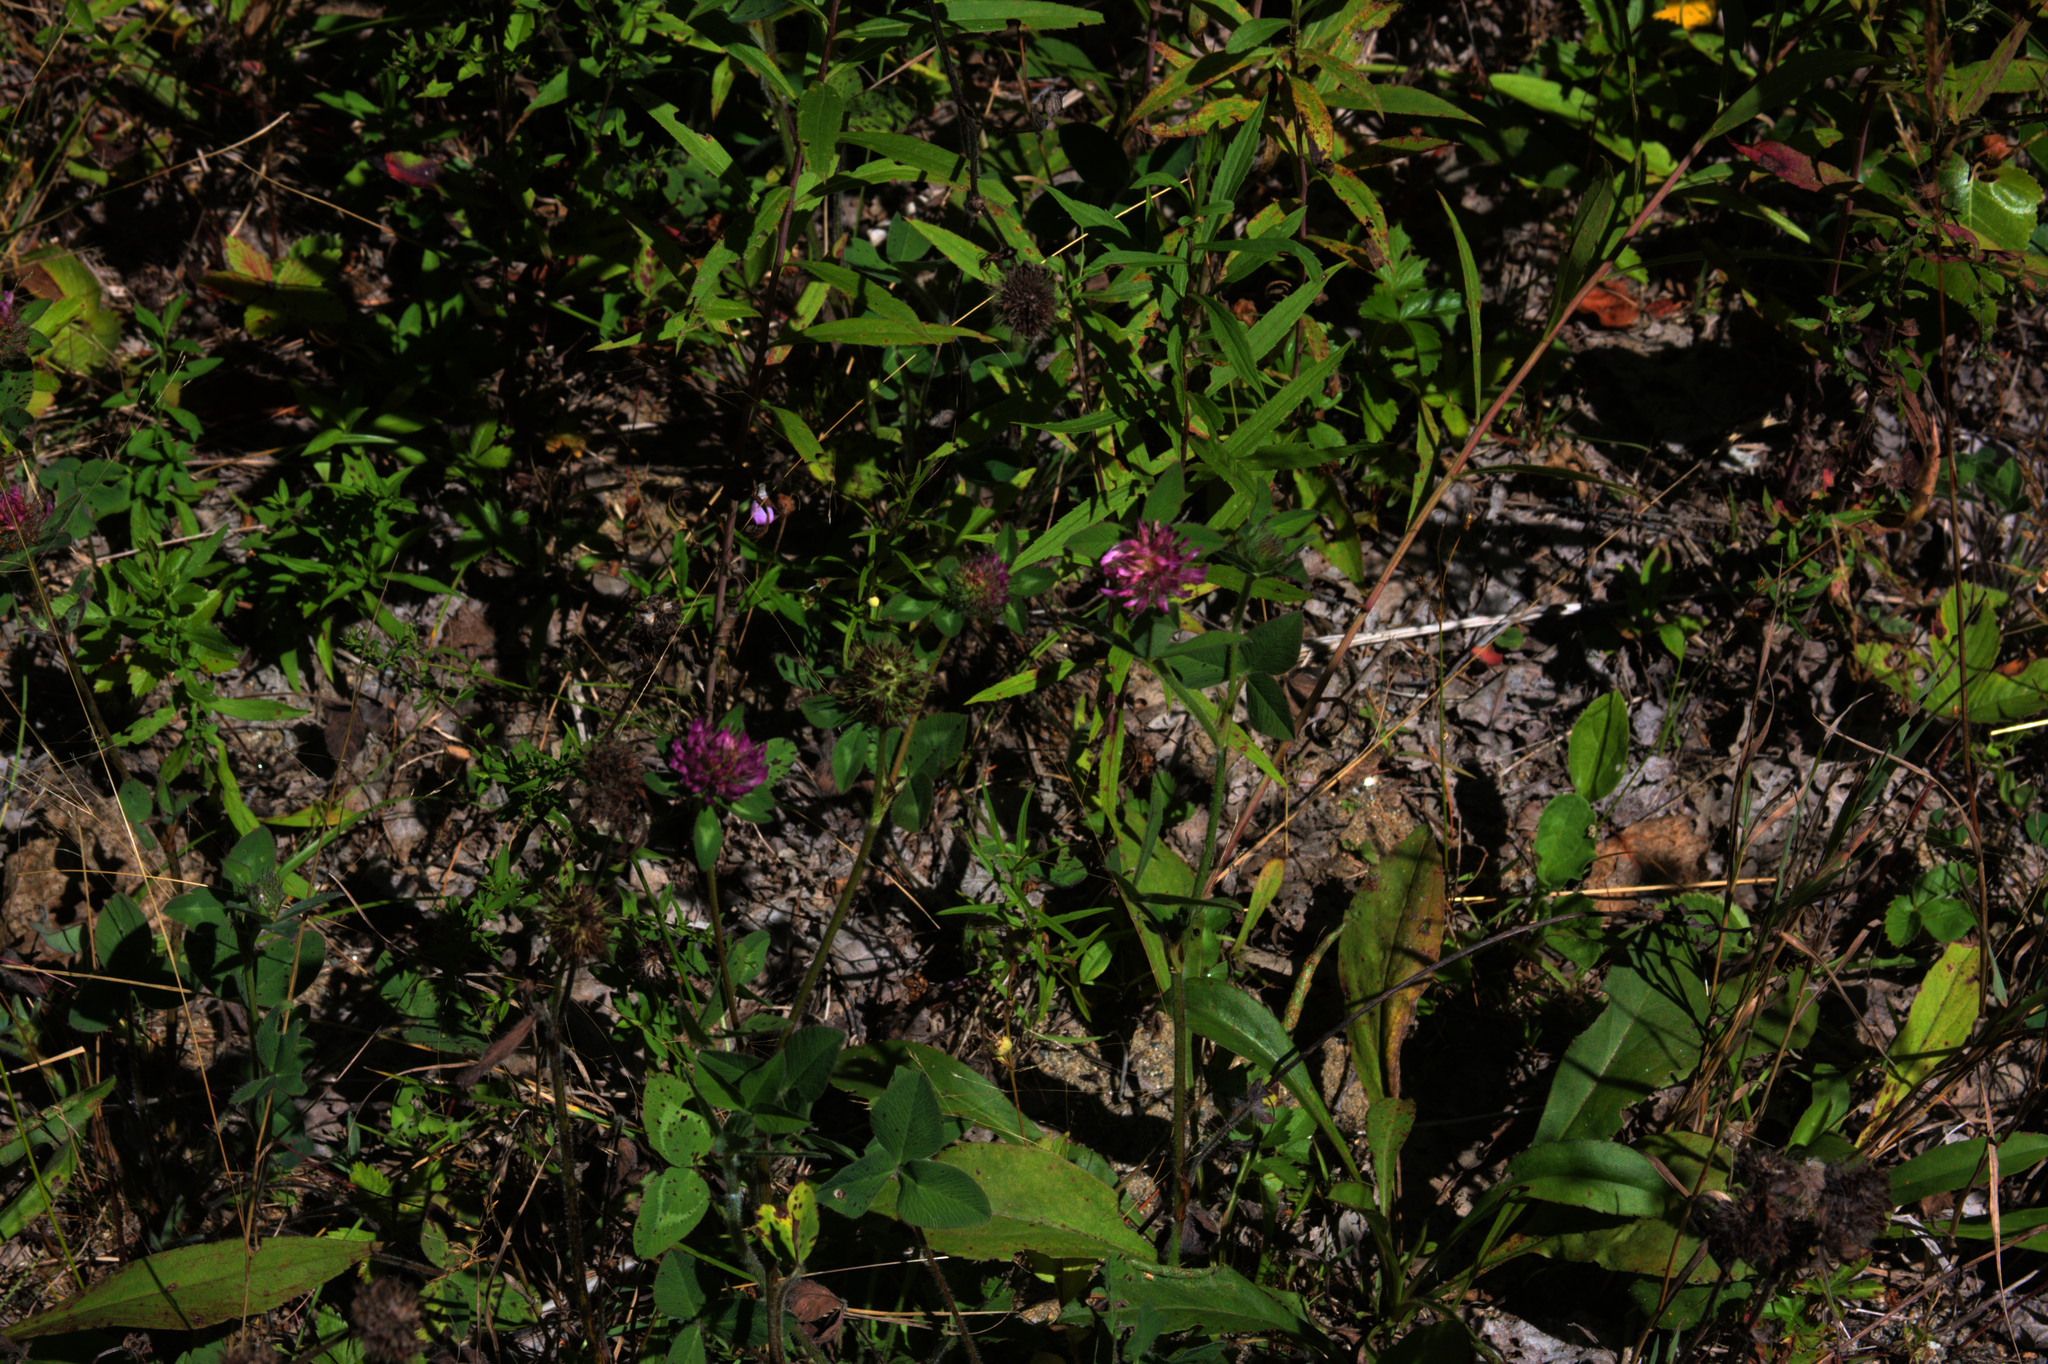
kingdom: Plantae
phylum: Tracheophyta
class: Magnoliopsida
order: Fabales
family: Fabaceae
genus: Trifolium
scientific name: Trifolium pratense
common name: Red clover
